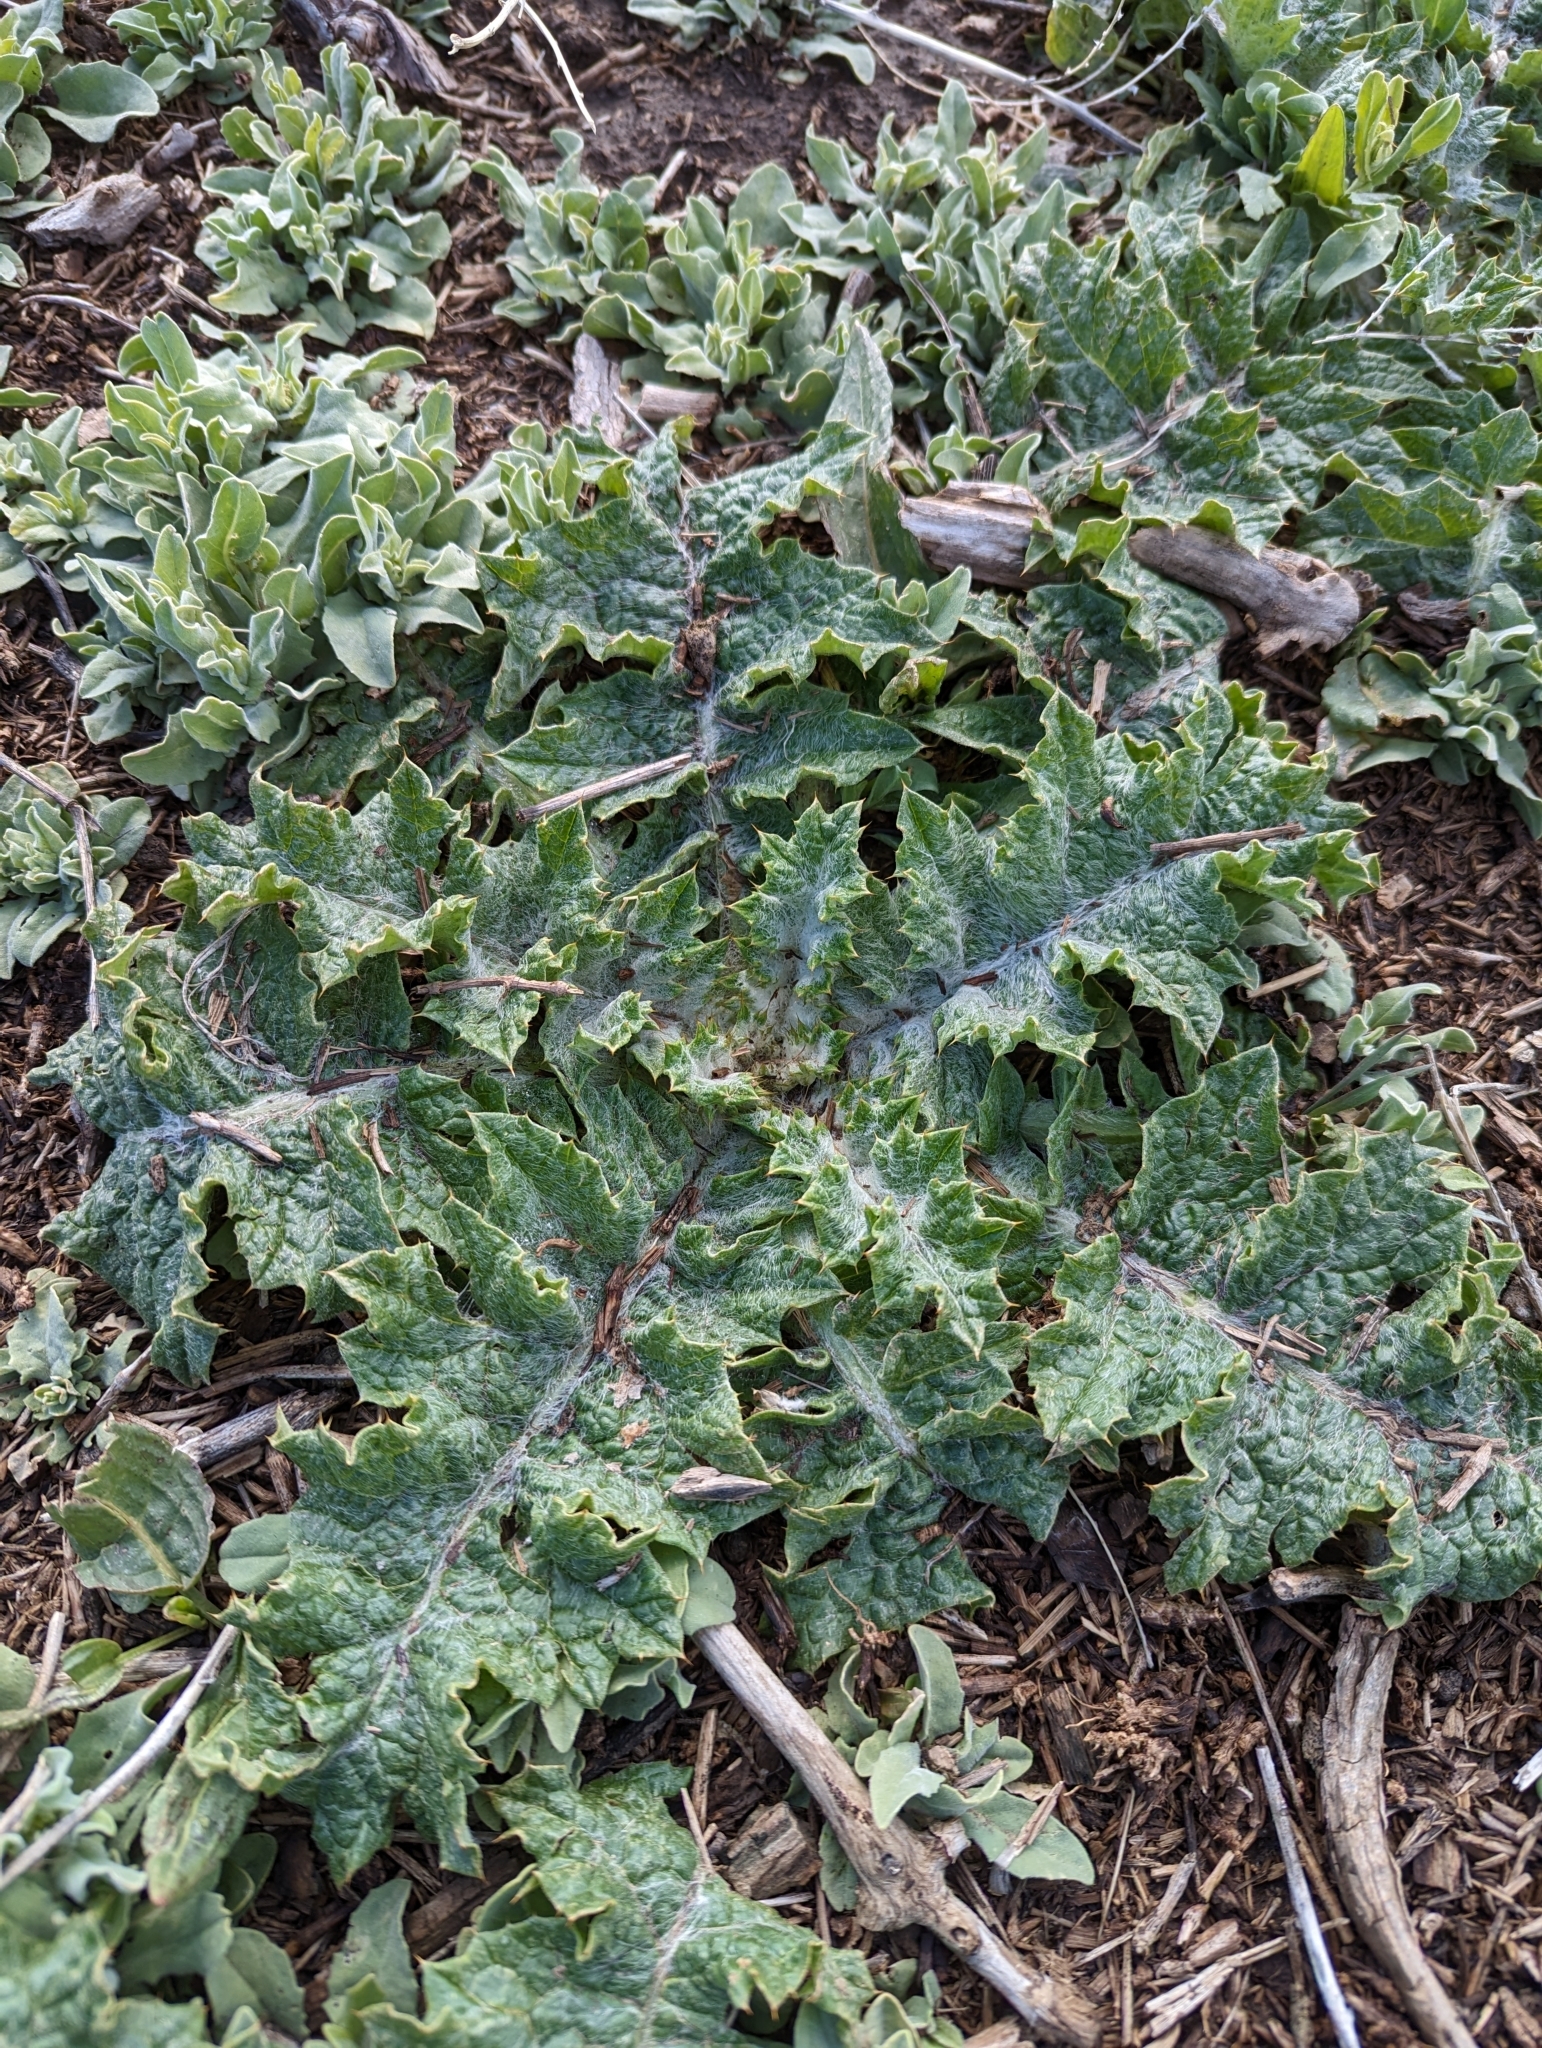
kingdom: Plantae
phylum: Tracheophyta
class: Magnoliopsida
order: Asterales
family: Asteraceae
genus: Onopordum
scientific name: Onopordum acanthium
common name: Scotch thistle
